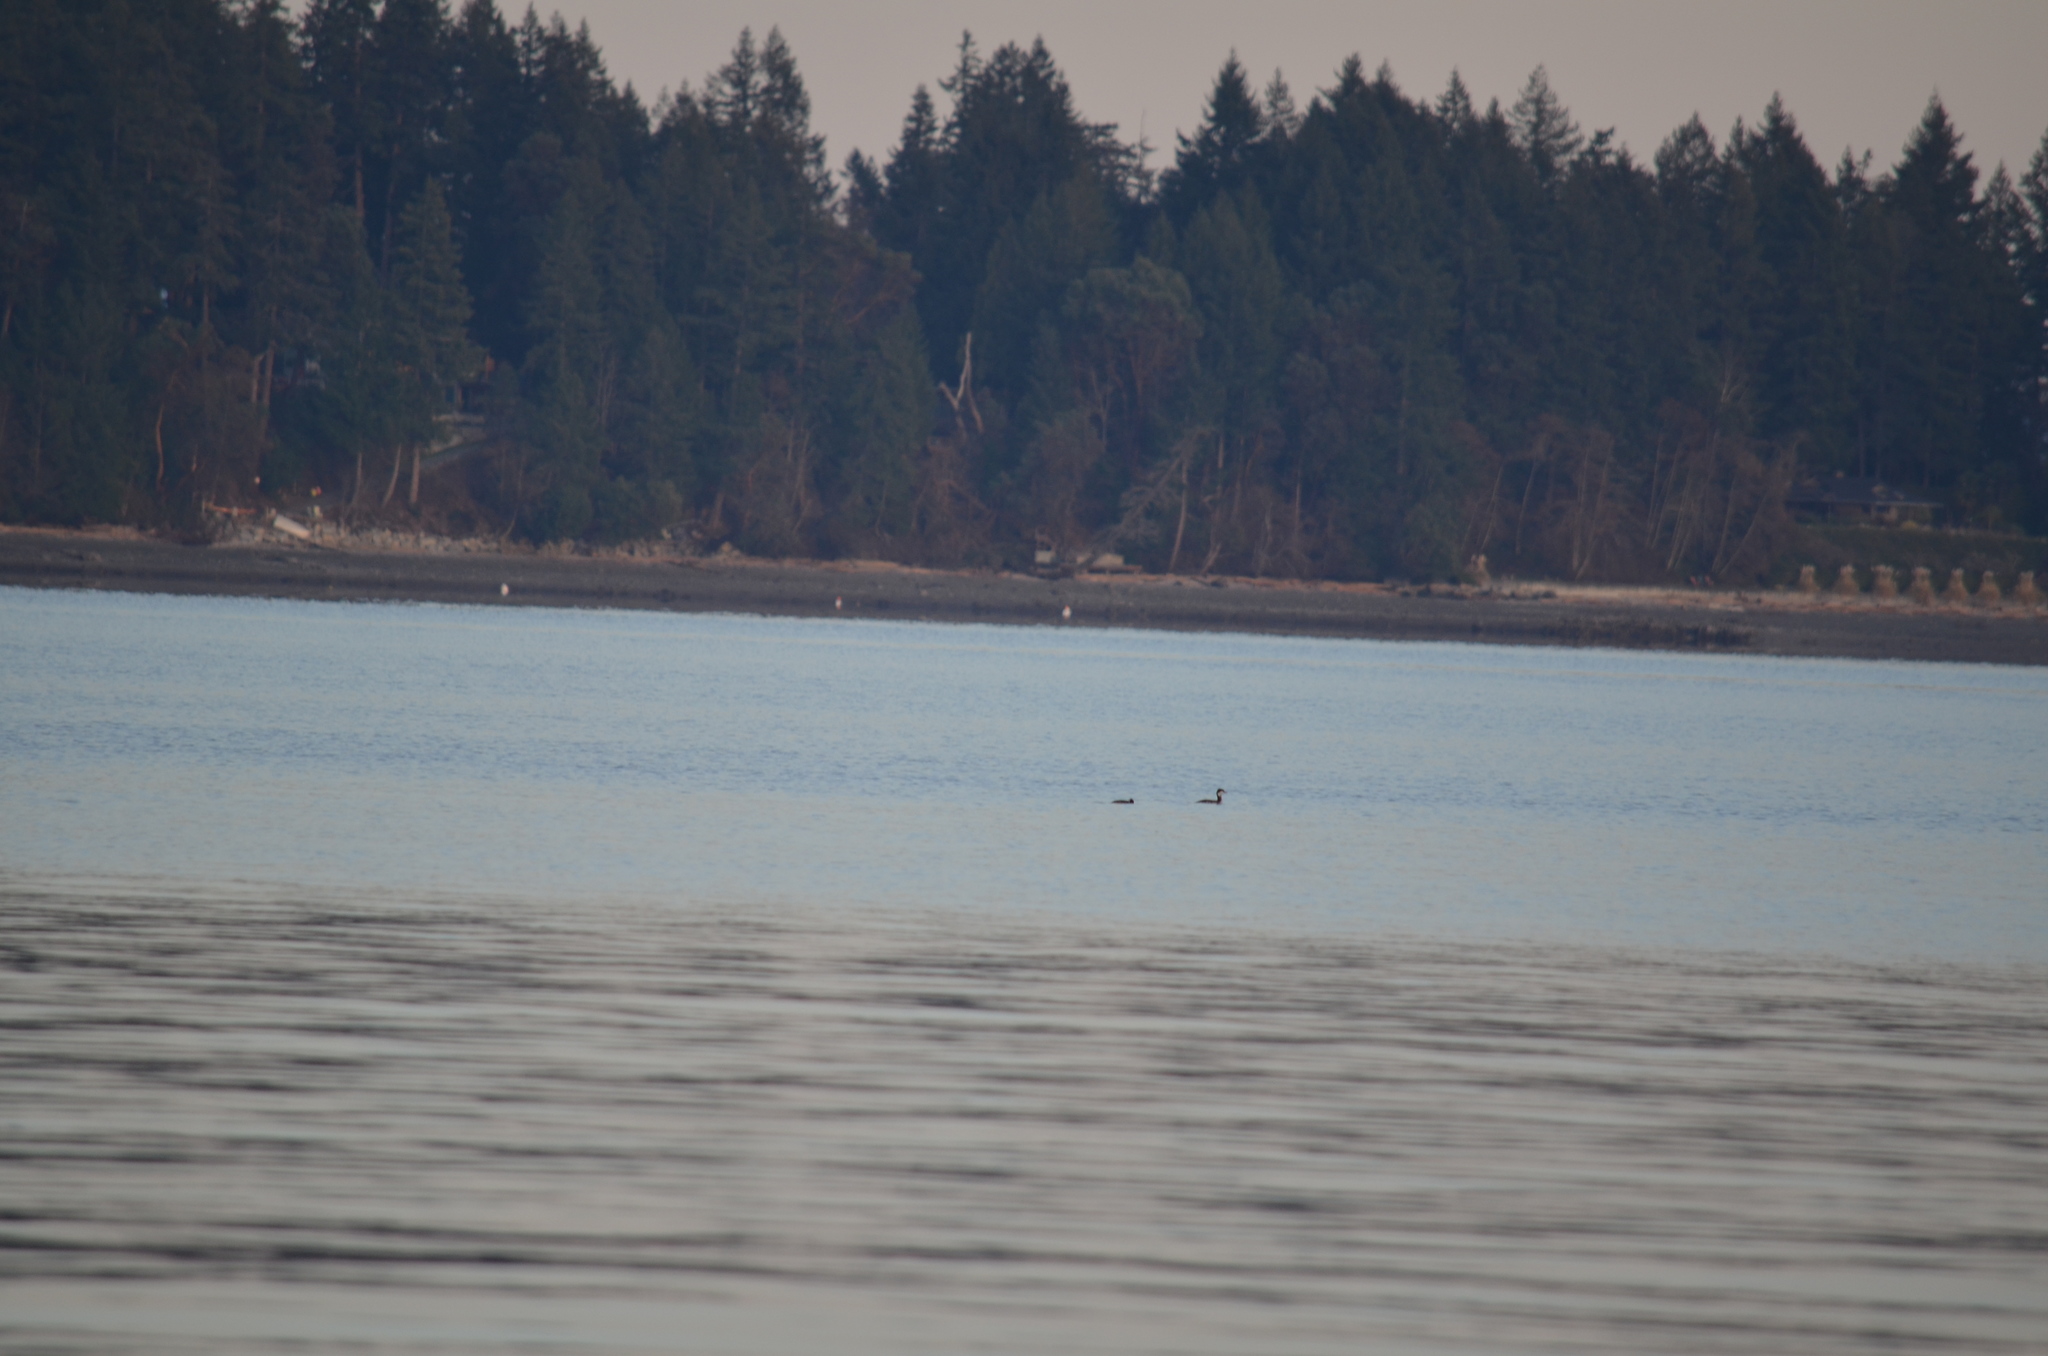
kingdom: Animalia
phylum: Chordata
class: Aves
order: Podicipediformes
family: Podicipedidae
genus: Podiceps
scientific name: Podiceps grisegena
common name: Red-necked grebe
